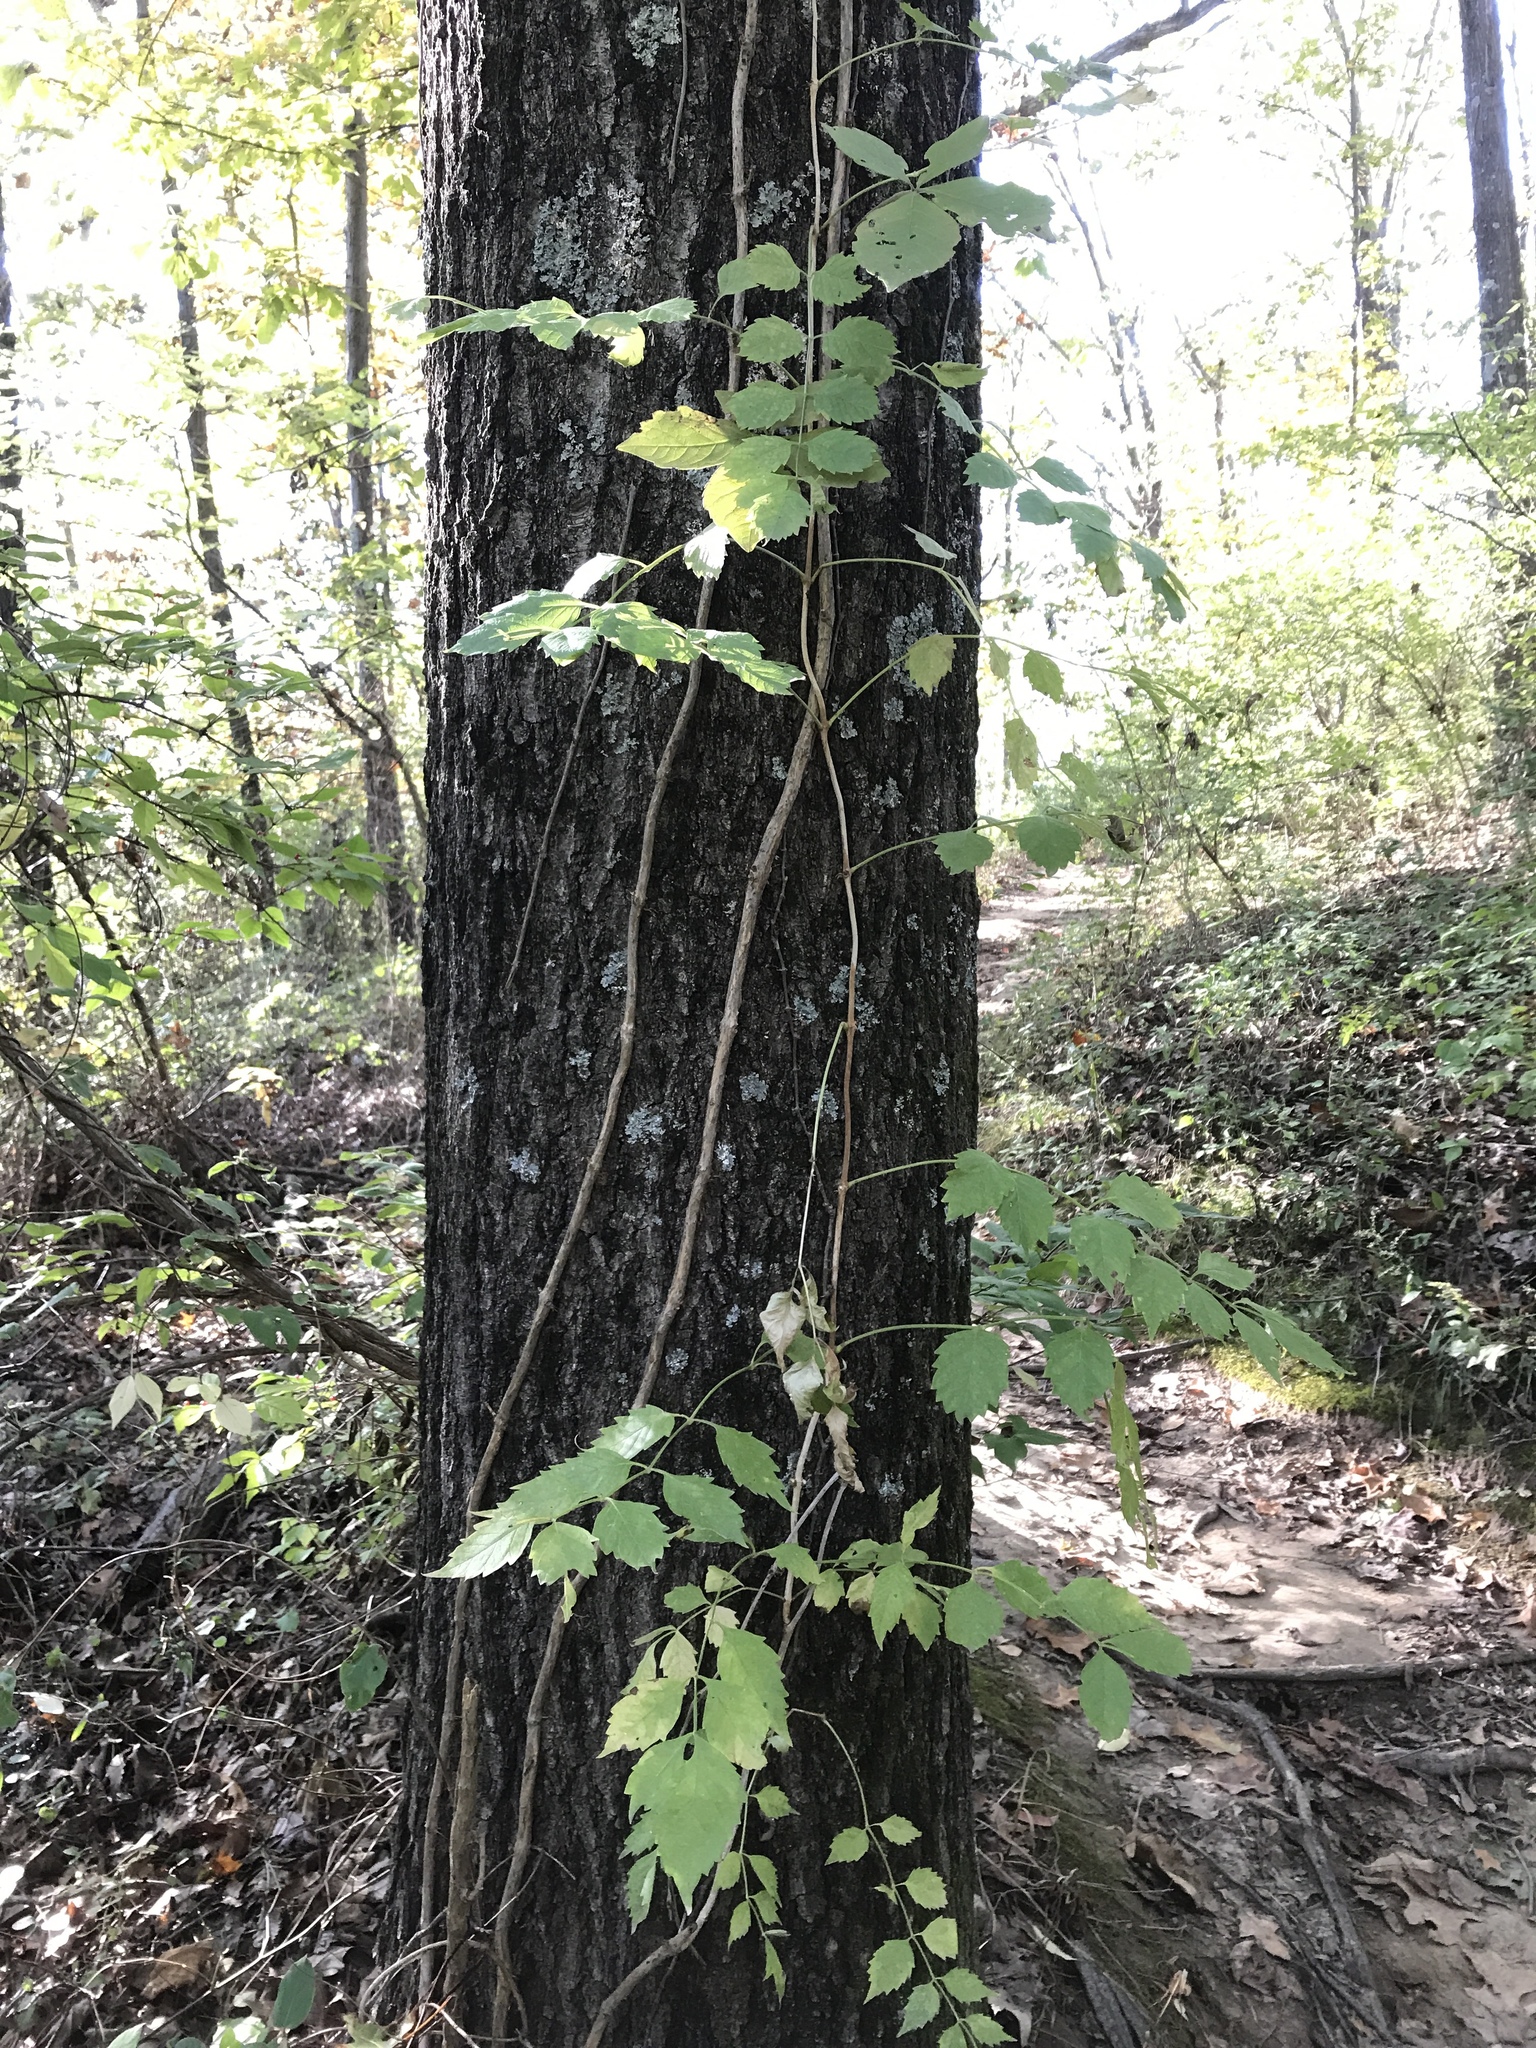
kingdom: Plantae
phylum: Tracheophyta
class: Magnoliopsida
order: Lamiales
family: Bignoniaceae
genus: Campsis
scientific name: Campsis radicans
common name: Trumpet-creeper
